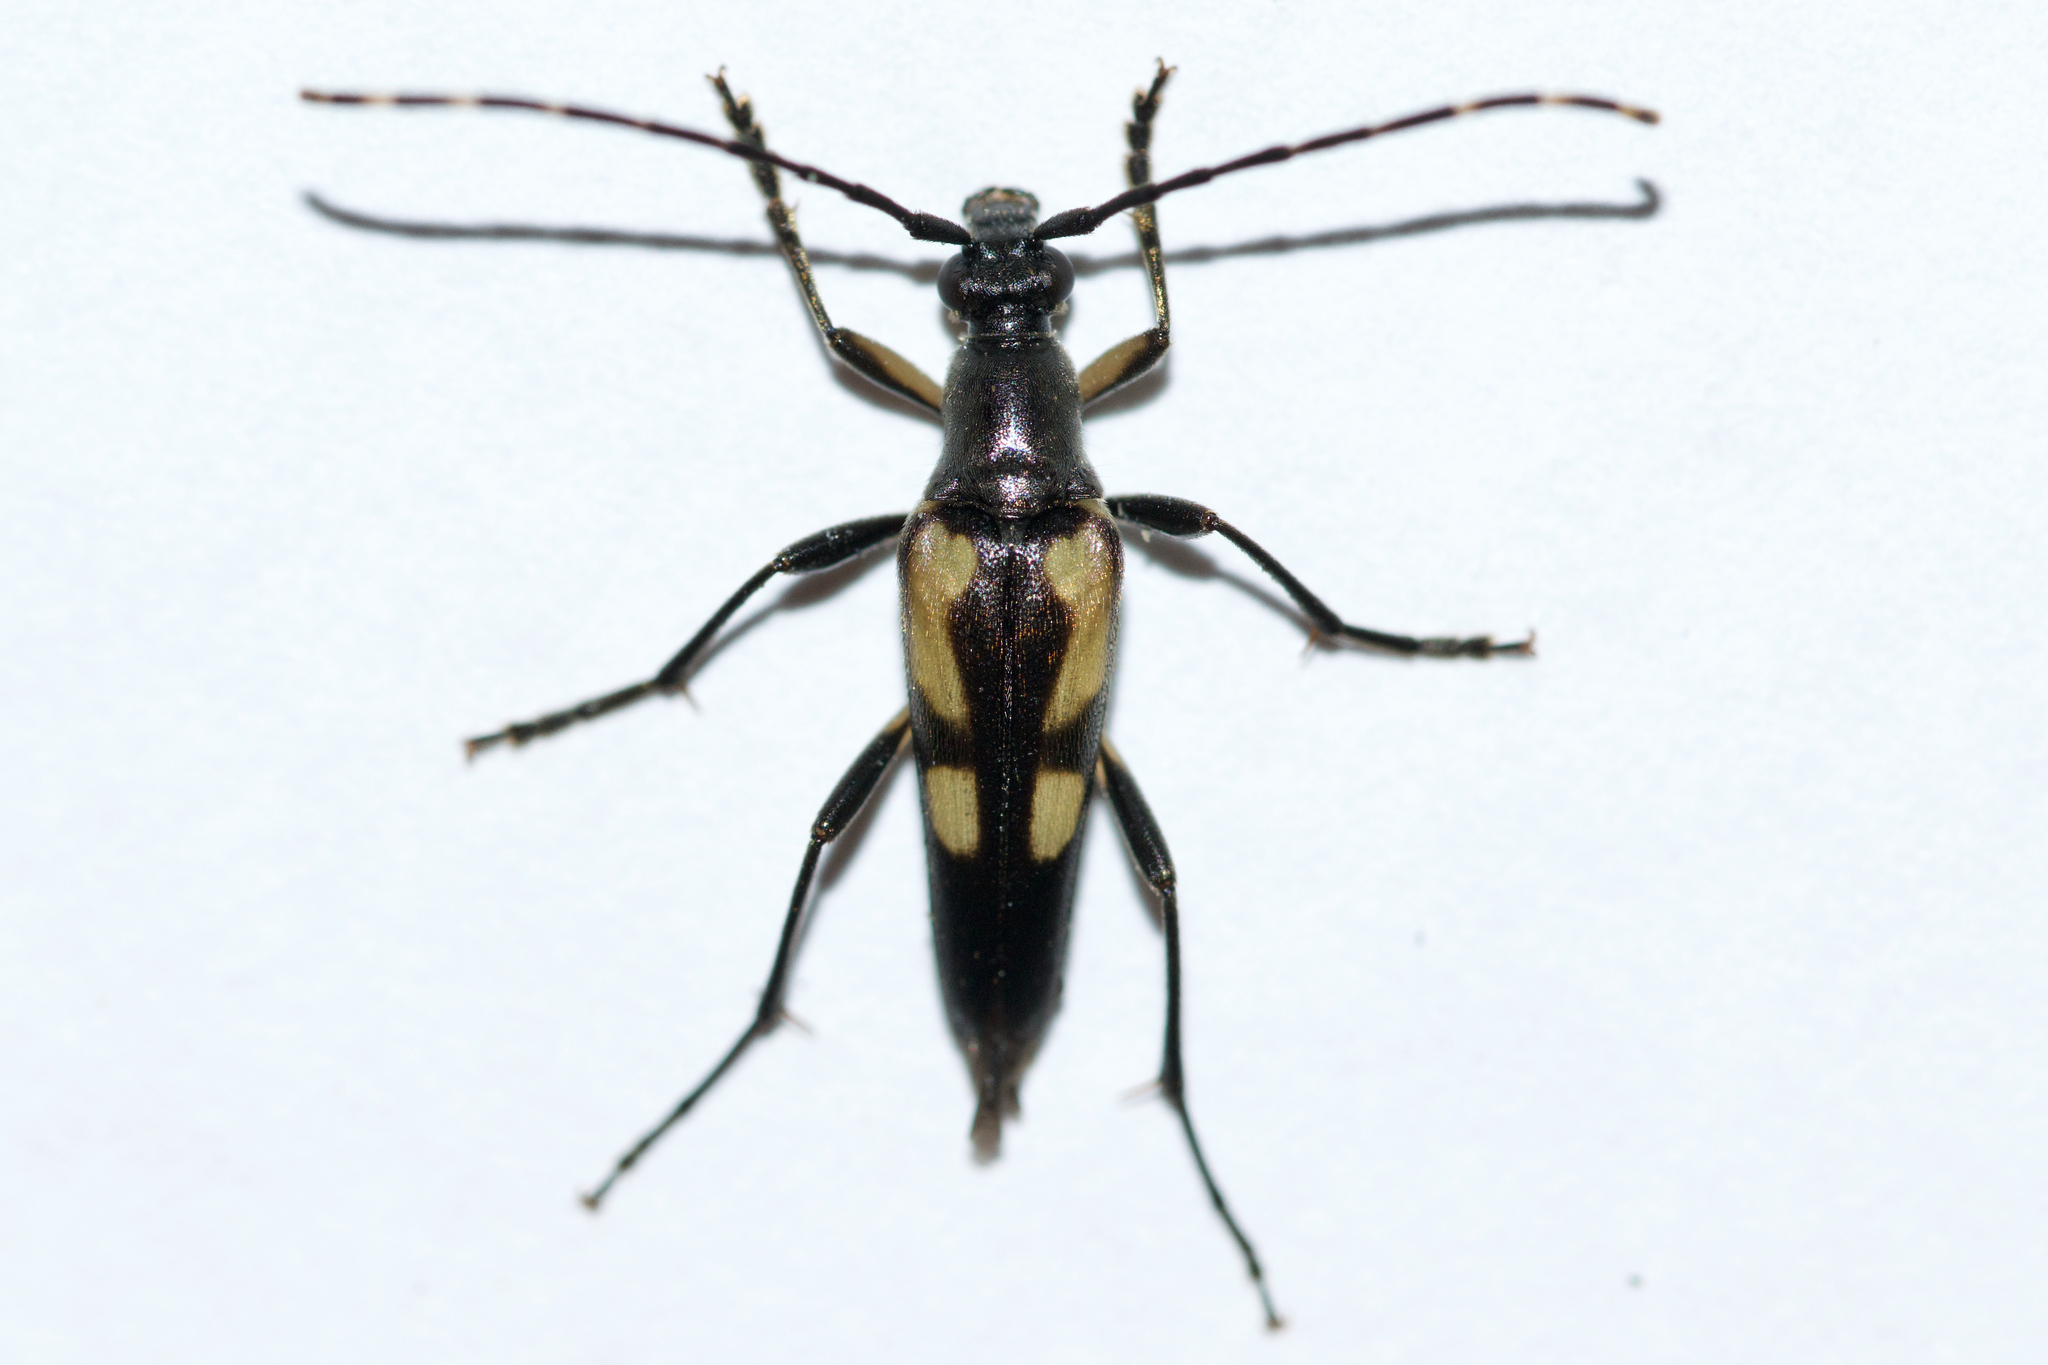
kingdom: Animalia
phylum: Arthropoda
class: Insecta
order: Coleoptera
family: Cerambycidae
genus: Etorofus
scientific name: Etorofus
